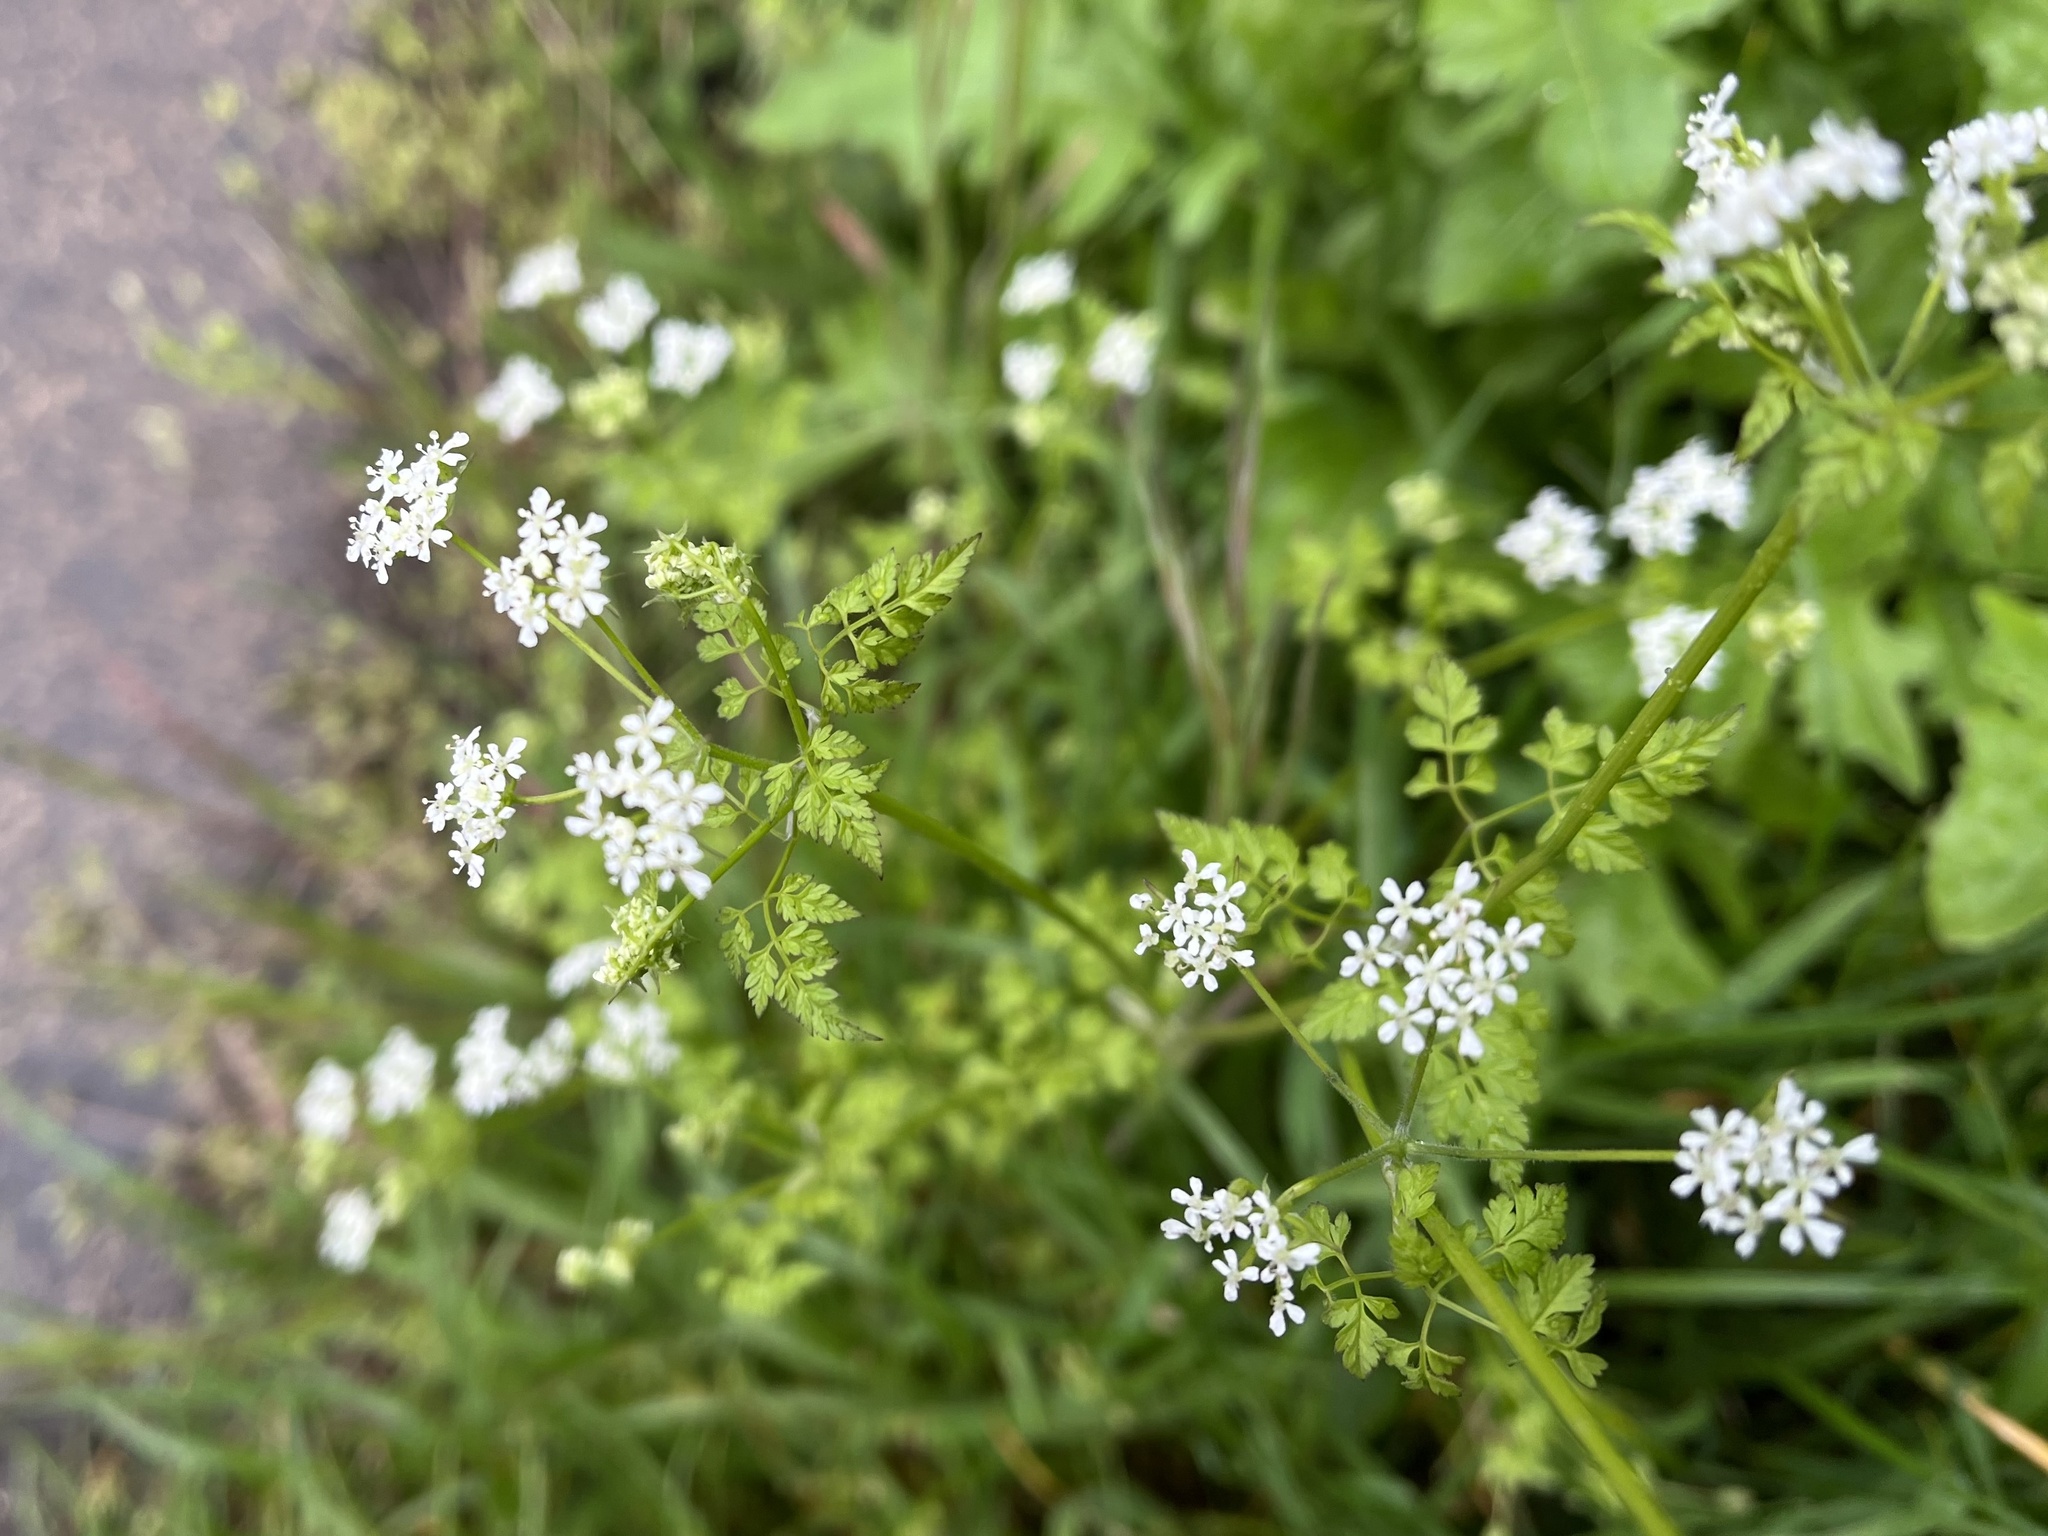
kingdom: Plantae
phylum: Tracheophyta
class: Magnoliopsida
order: Apiales
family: Apiaceae
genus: Anthriscus
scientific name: Anthriscus cerefolium
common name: Garden chervil
